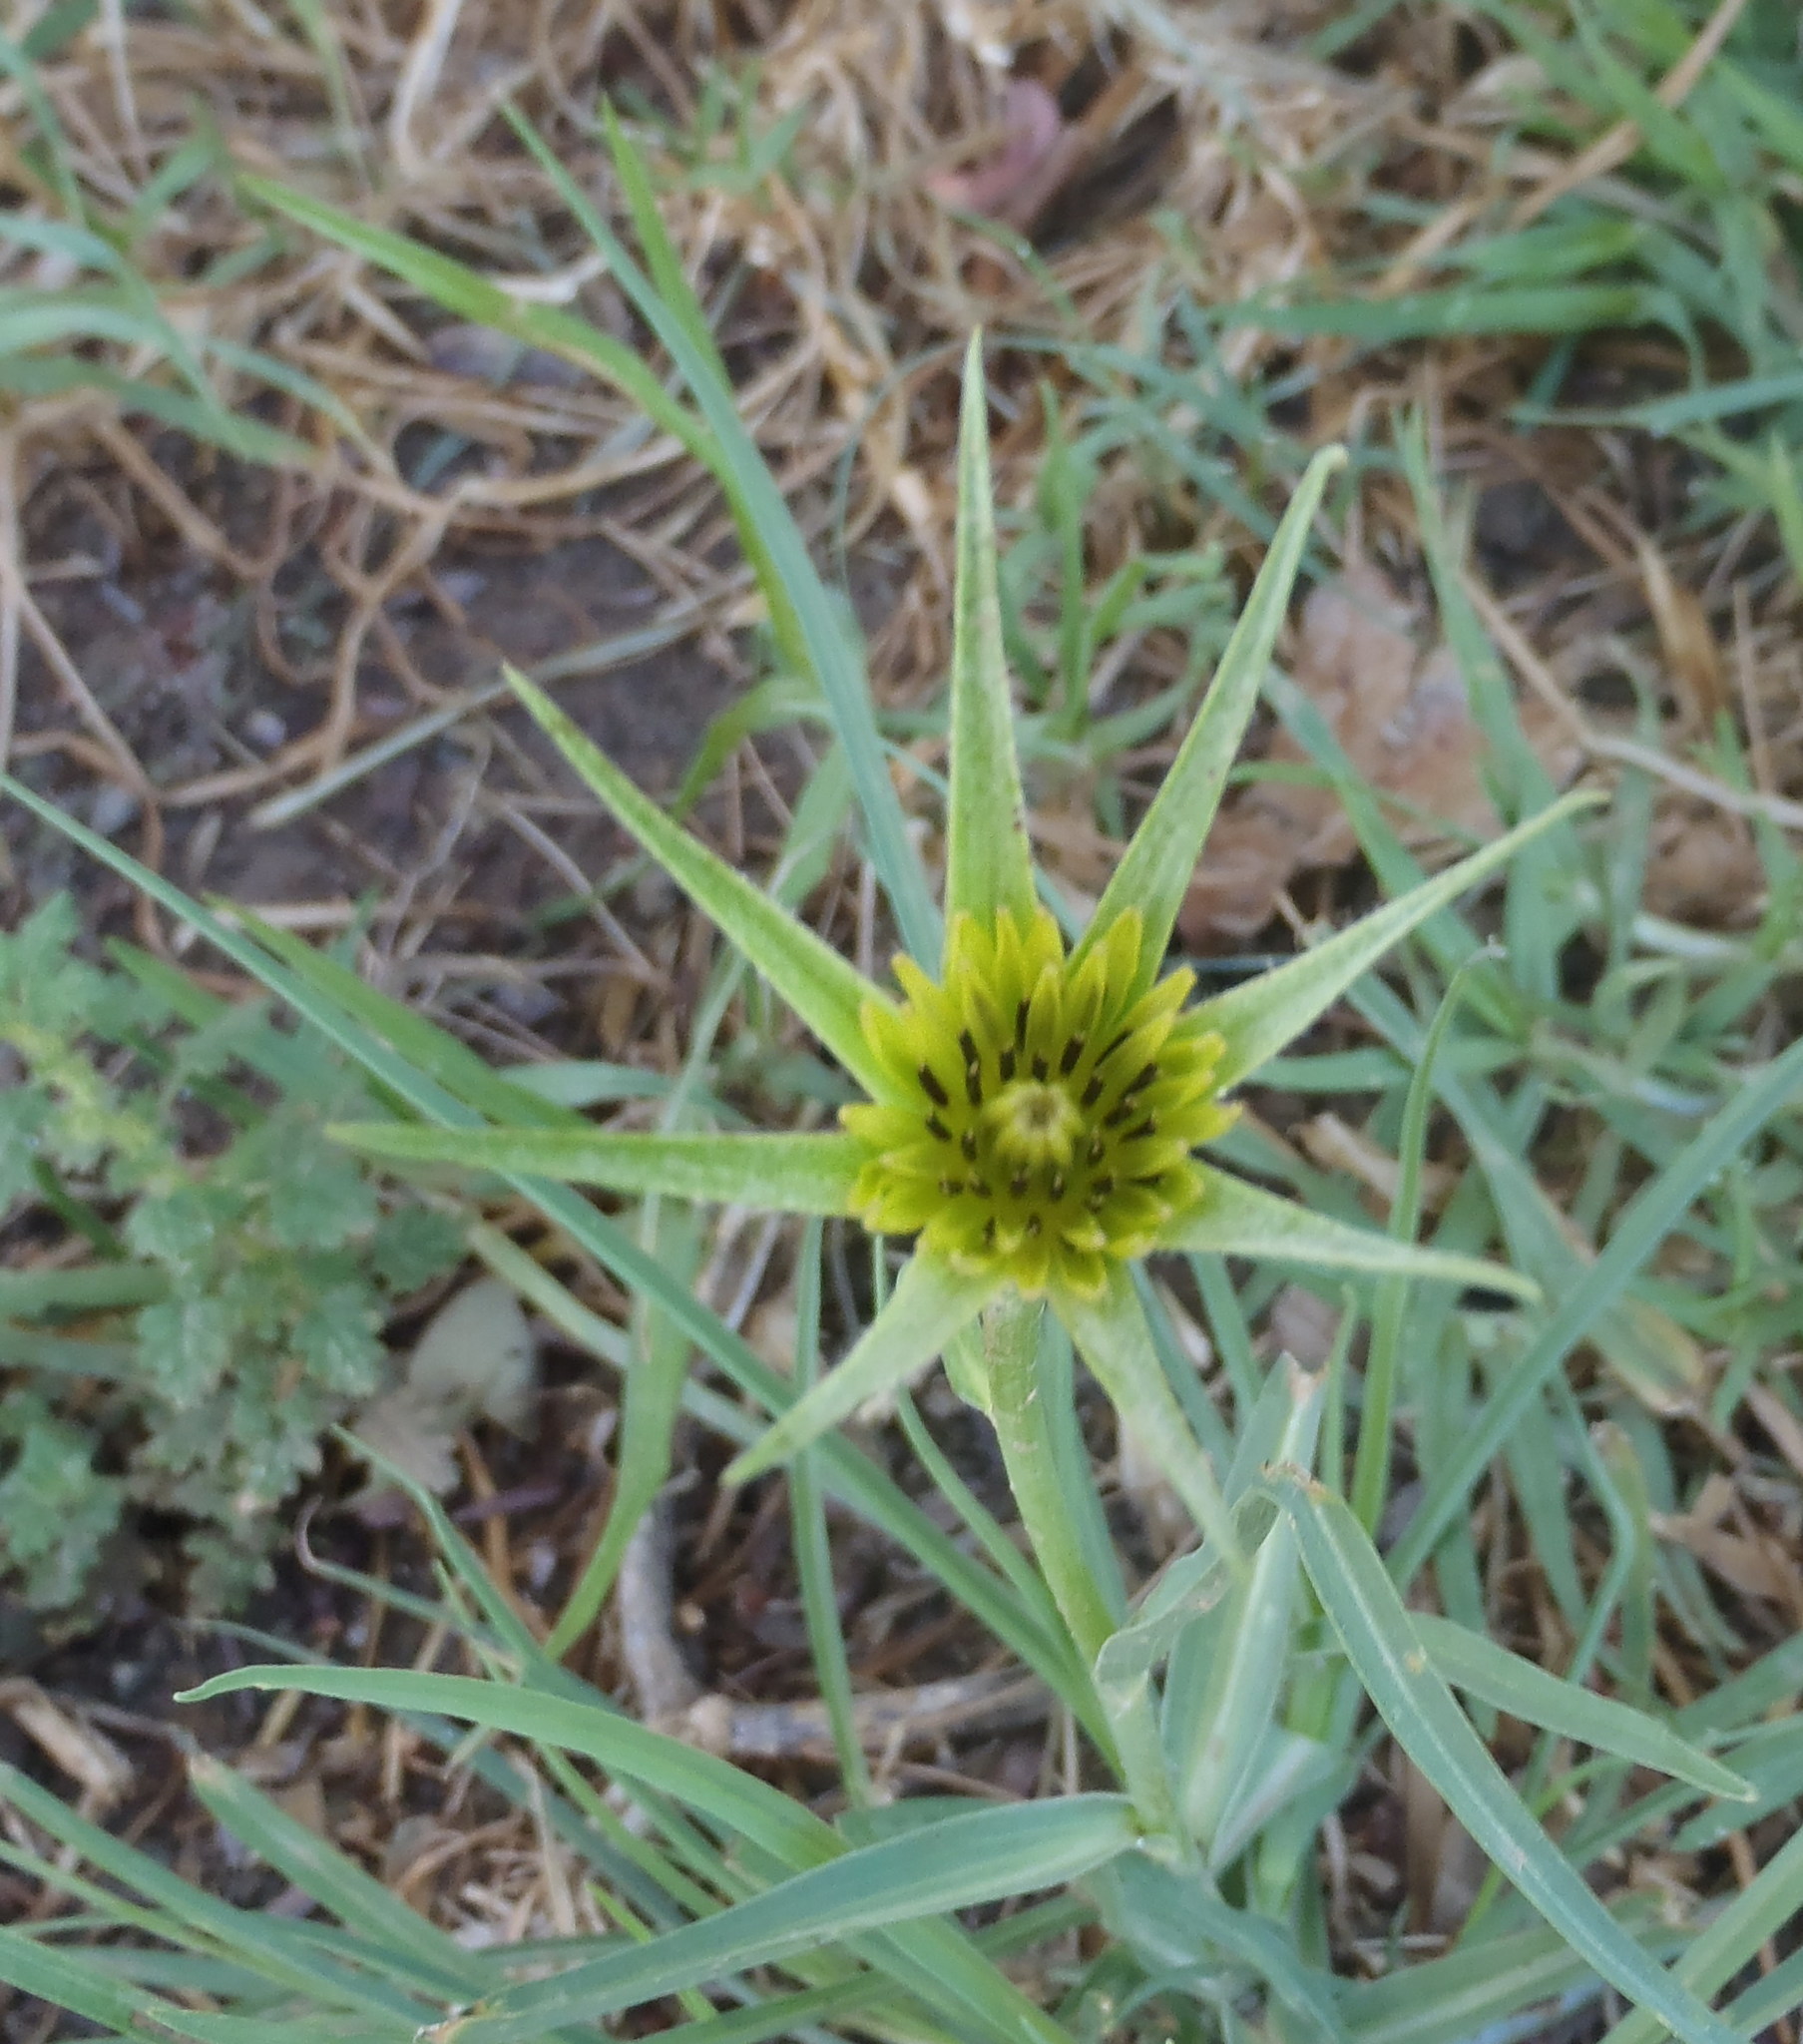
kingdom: Plantae
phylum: Tracheophyta
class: Magnoliopsida
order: Asterales
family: Asteraceae
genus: Tragopogon
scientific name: Tragopogon dubius
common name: Yellow salsify
